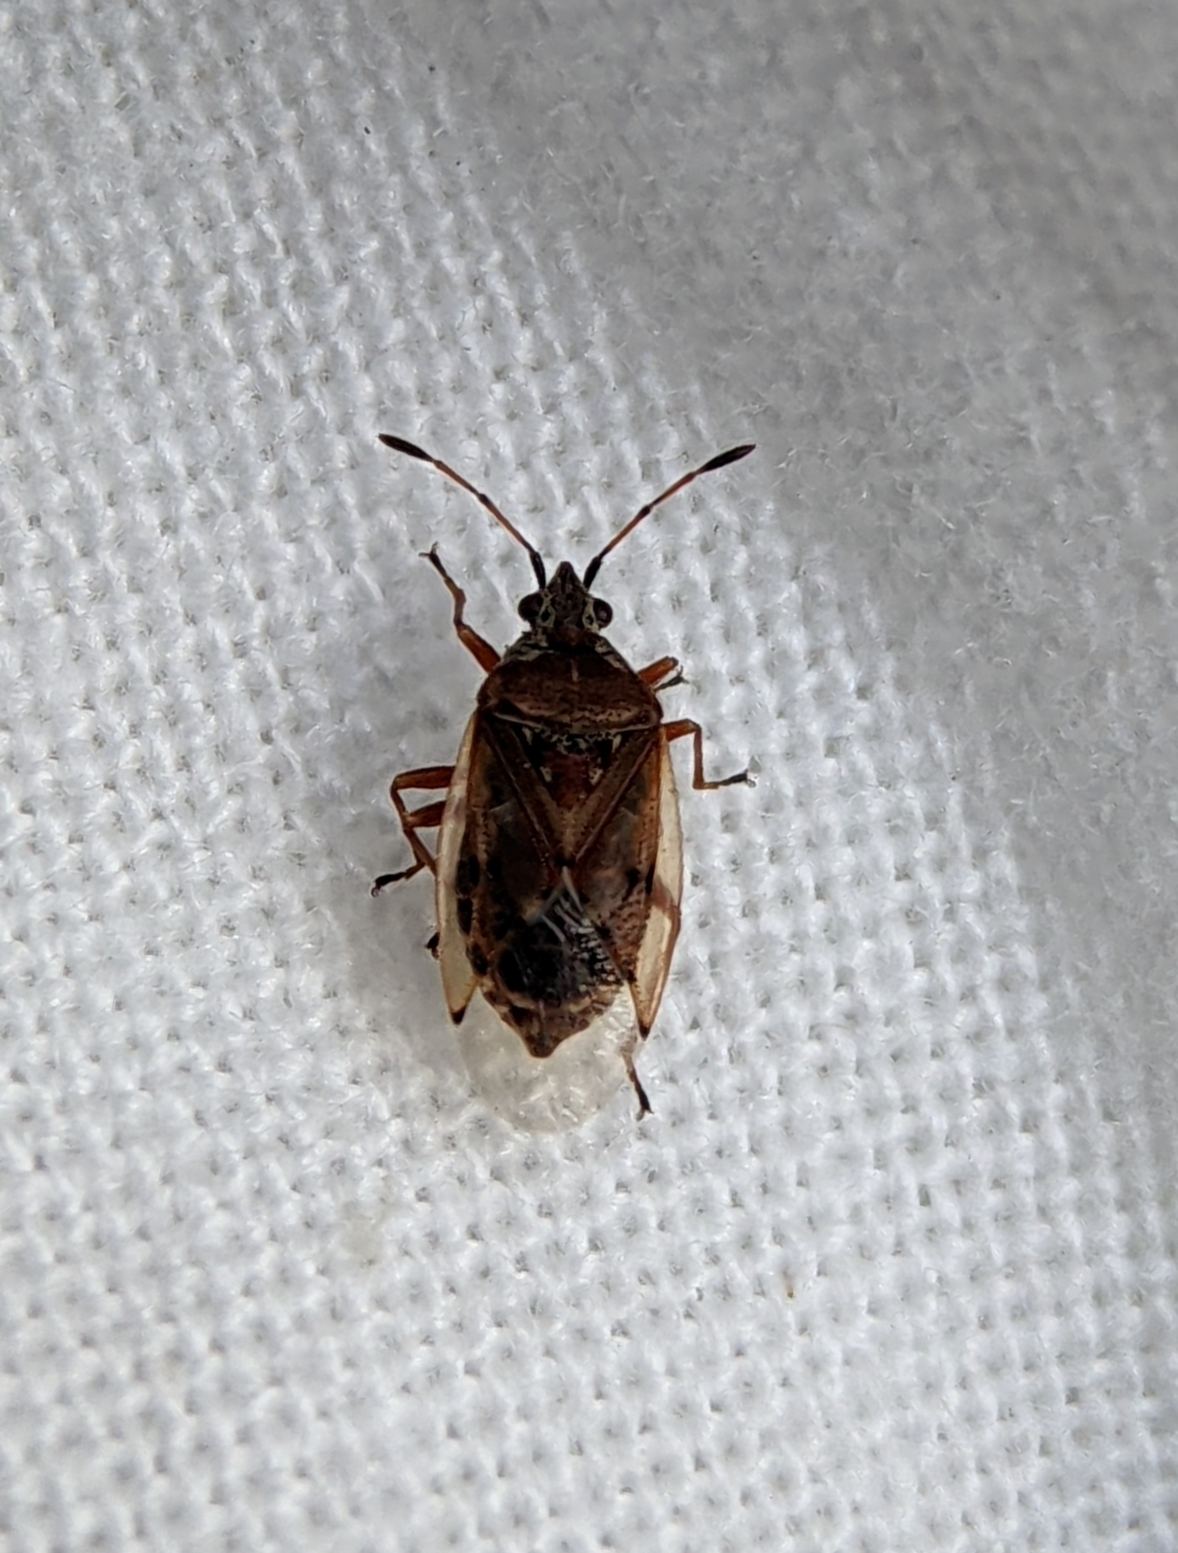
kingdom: Animalia
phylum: Arthropoda
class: Insecta
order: Hemiptera
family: Lygaeidae
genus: Kleidocerys
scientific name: Kleidocerys resedae
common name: Birch catkin bug
